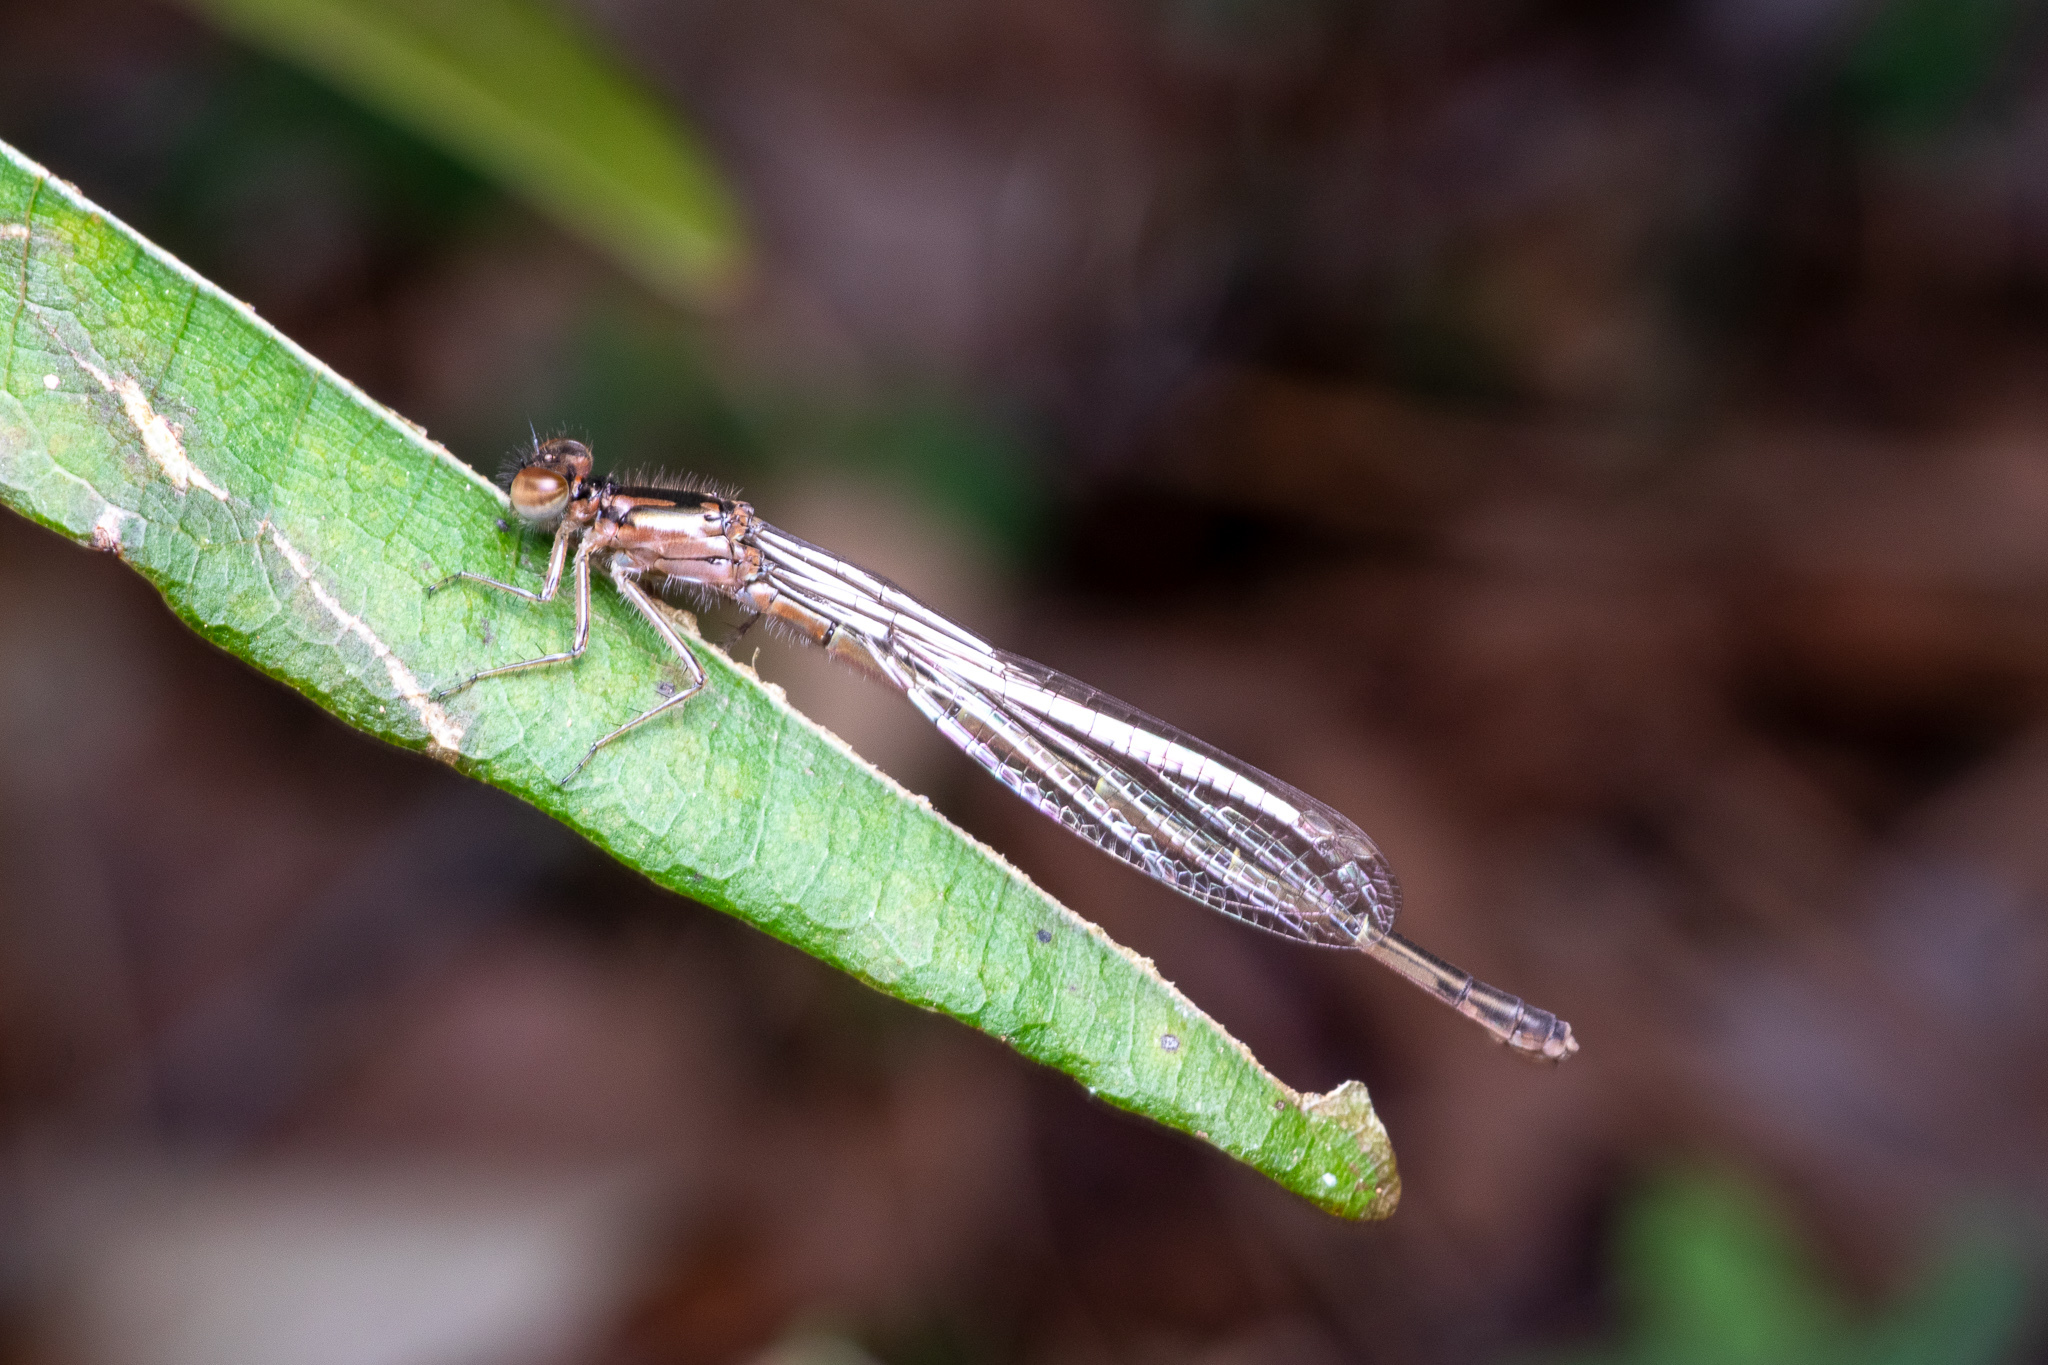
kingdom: Animalia
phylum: Arthropoda
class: Insecta
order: Odonata
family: Coenagrionidae
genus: Ischnura
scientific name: Ischnura posita
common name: Fragile forktail
